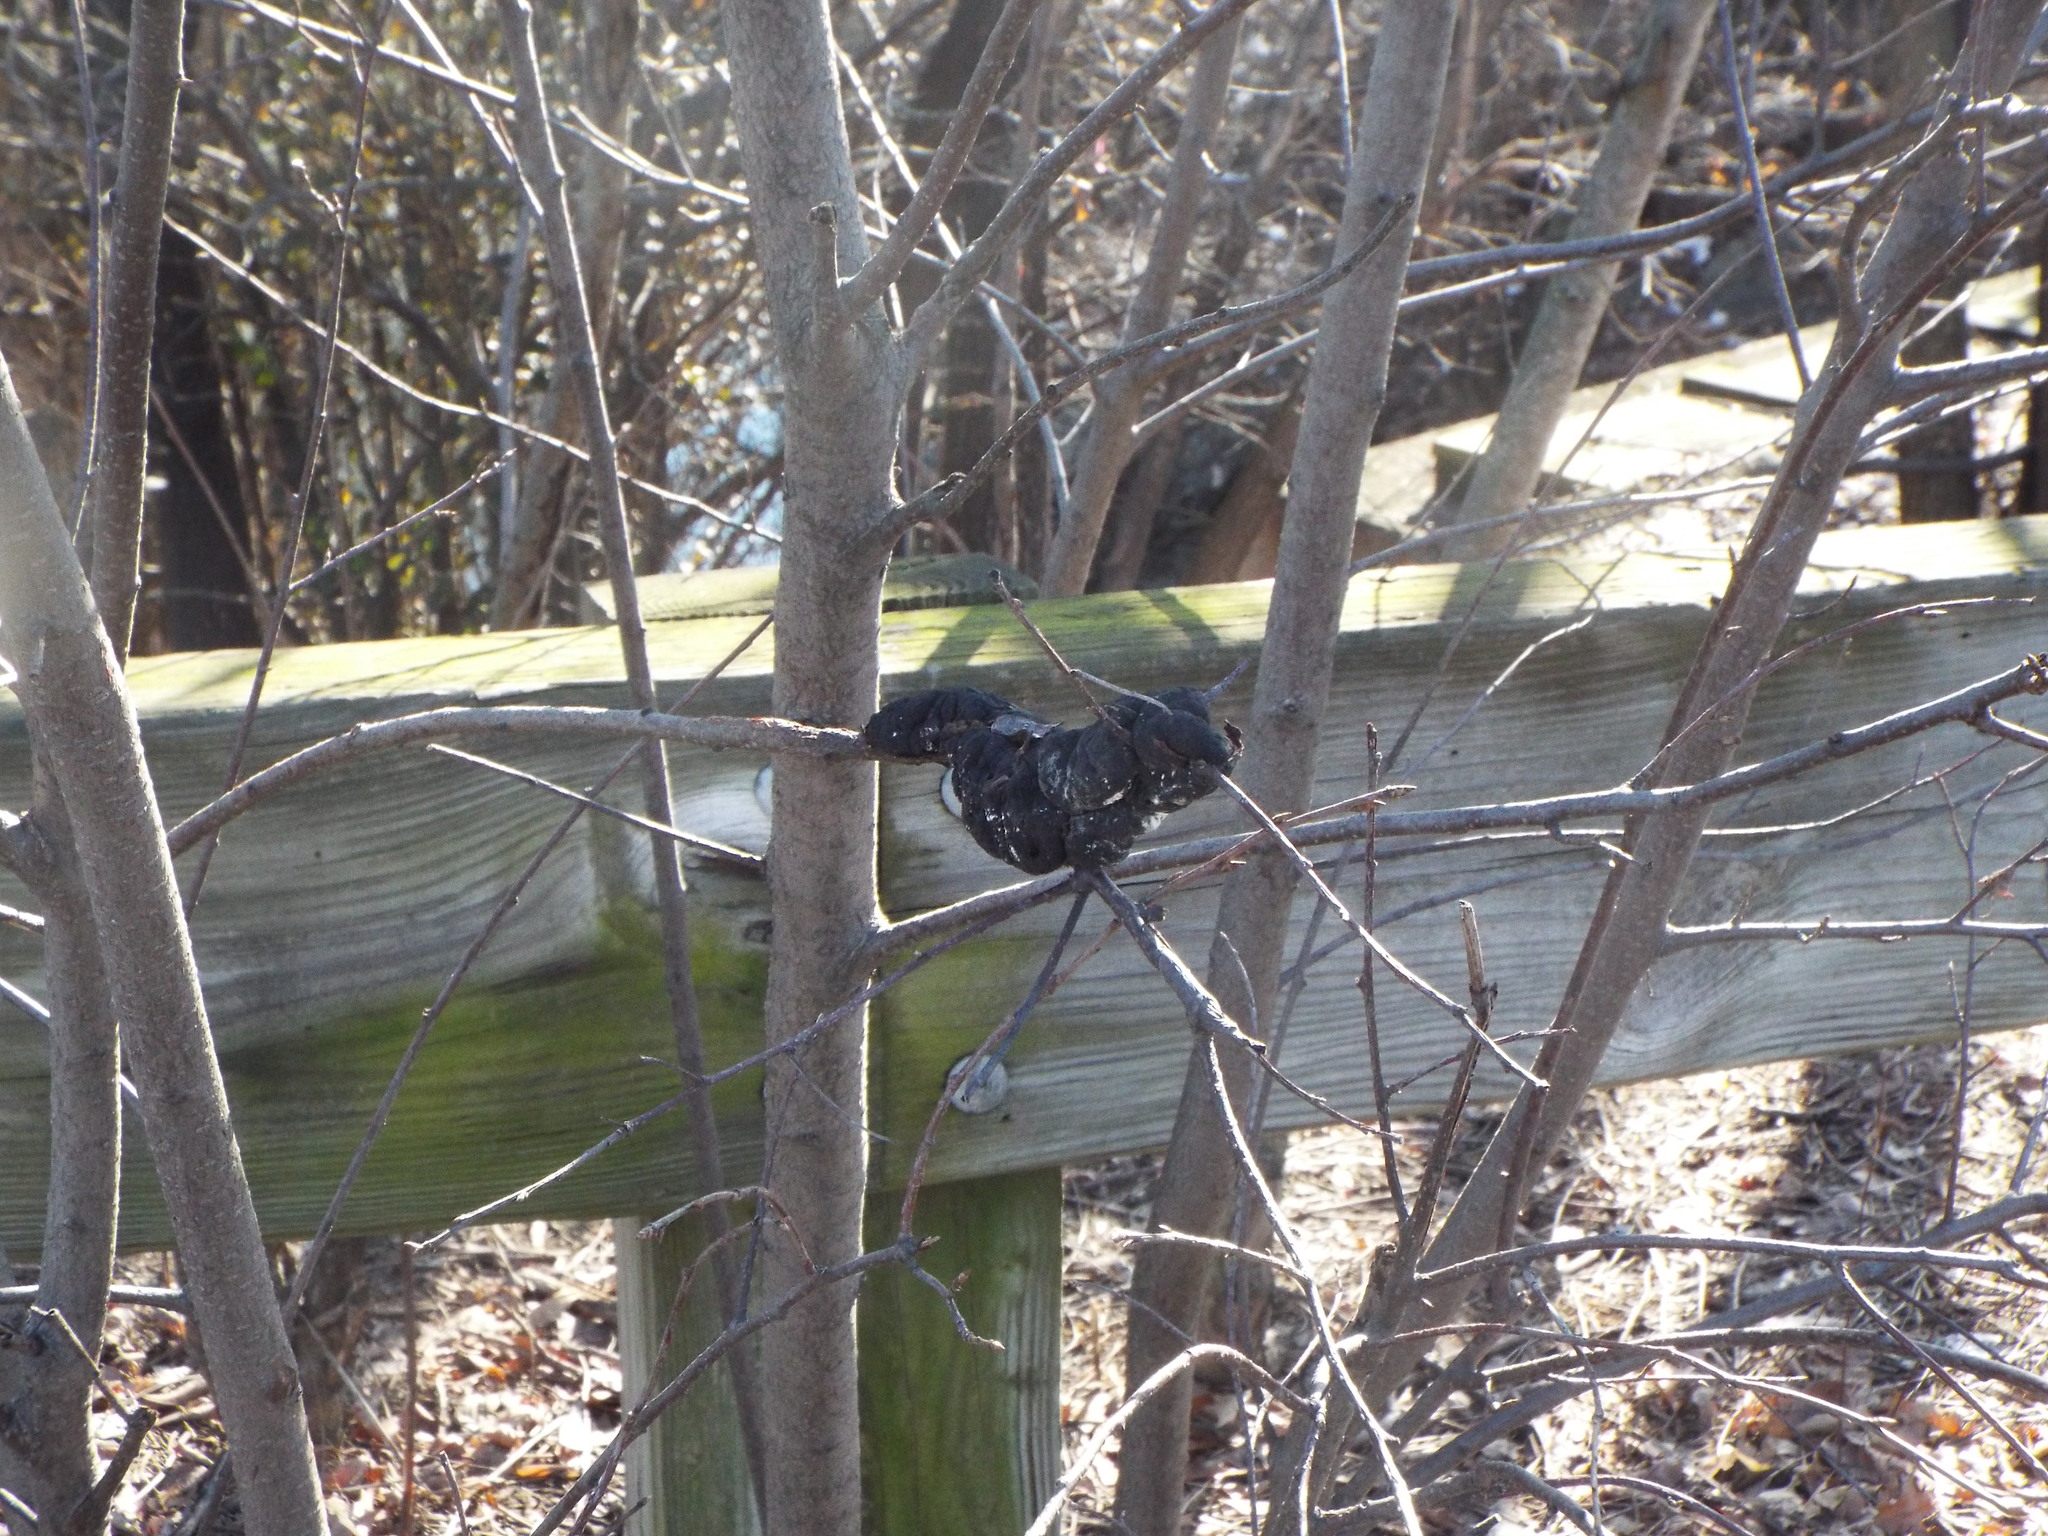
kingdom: Fungi
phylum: Ascomycota
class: Dothideomycetes
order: Venturiales
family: Venturiaceae
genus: Apiosporina
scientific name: Apiosporina morbosa
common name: Black knot
